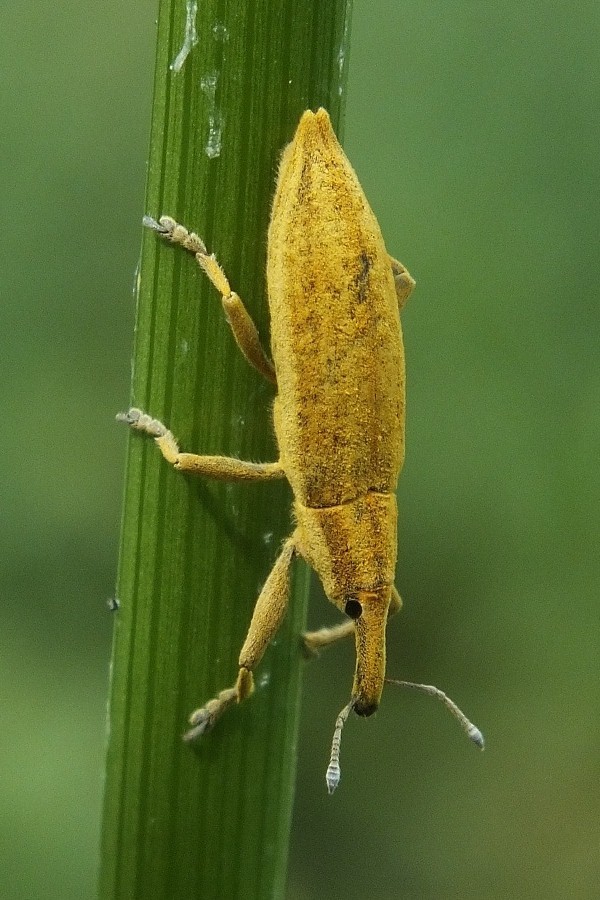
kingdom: Animalia
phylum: Arthropoda
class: Insecta
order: Coleoptera
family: Curculionidae
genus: Lixus
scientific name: Lixus iridis
